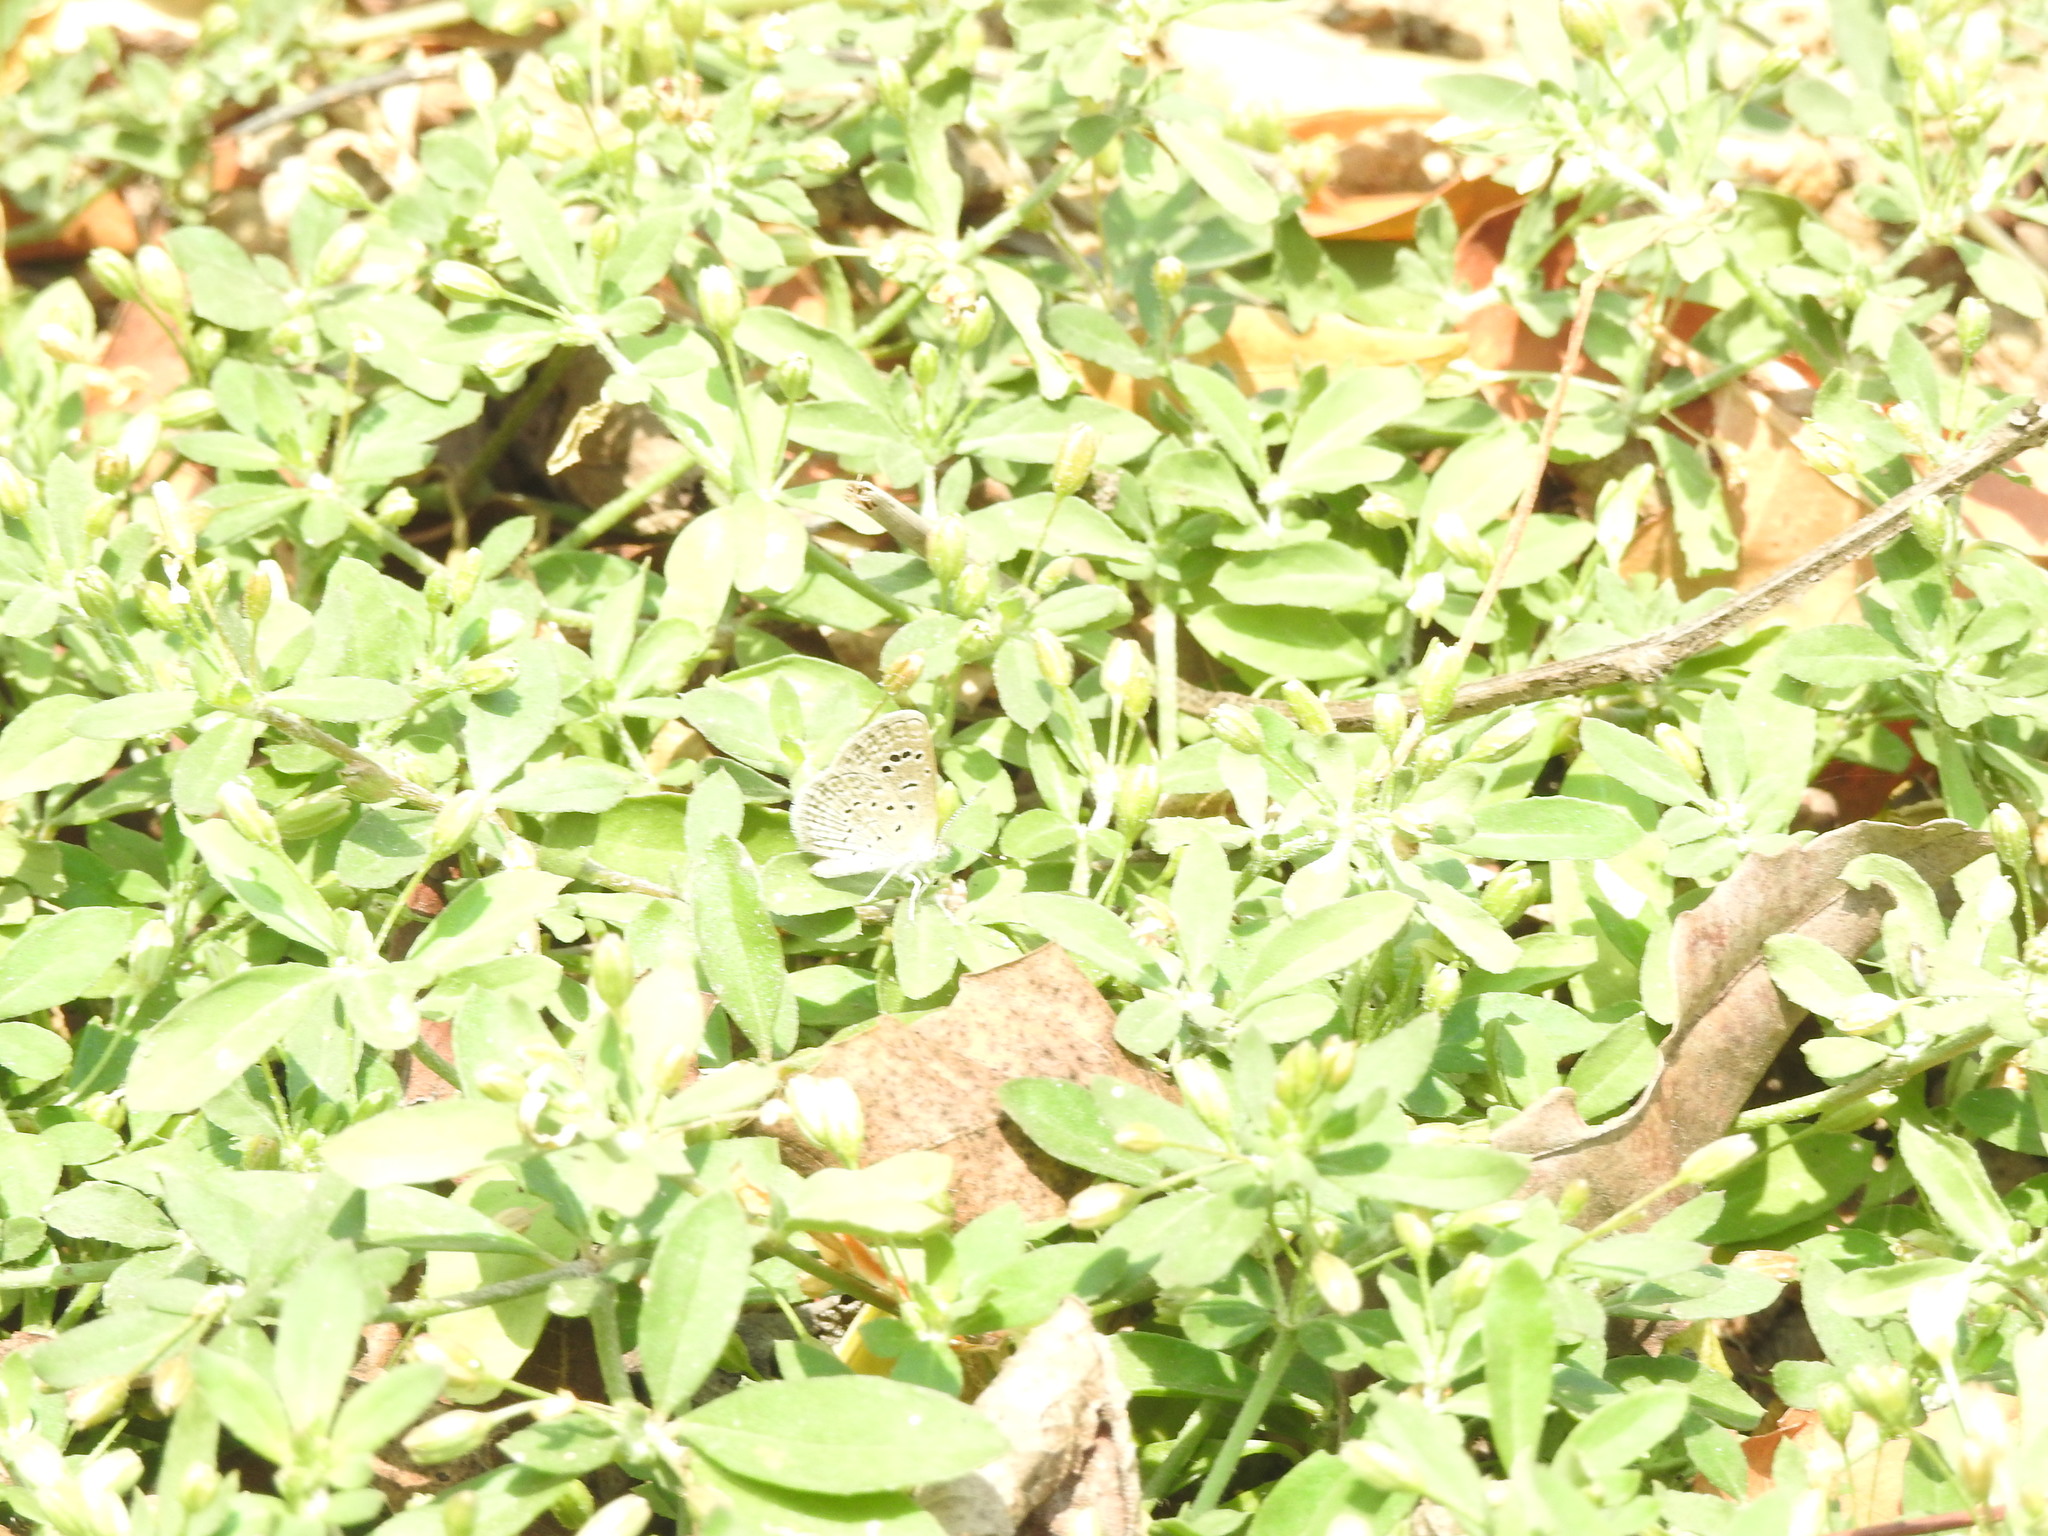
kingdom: Animalia
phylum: Arthropoda
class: Insecta
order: Lepidoptera
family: Lycaenidae
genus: Zizeeria
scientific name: Zizeeria karsandra
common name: Dark grass blue
